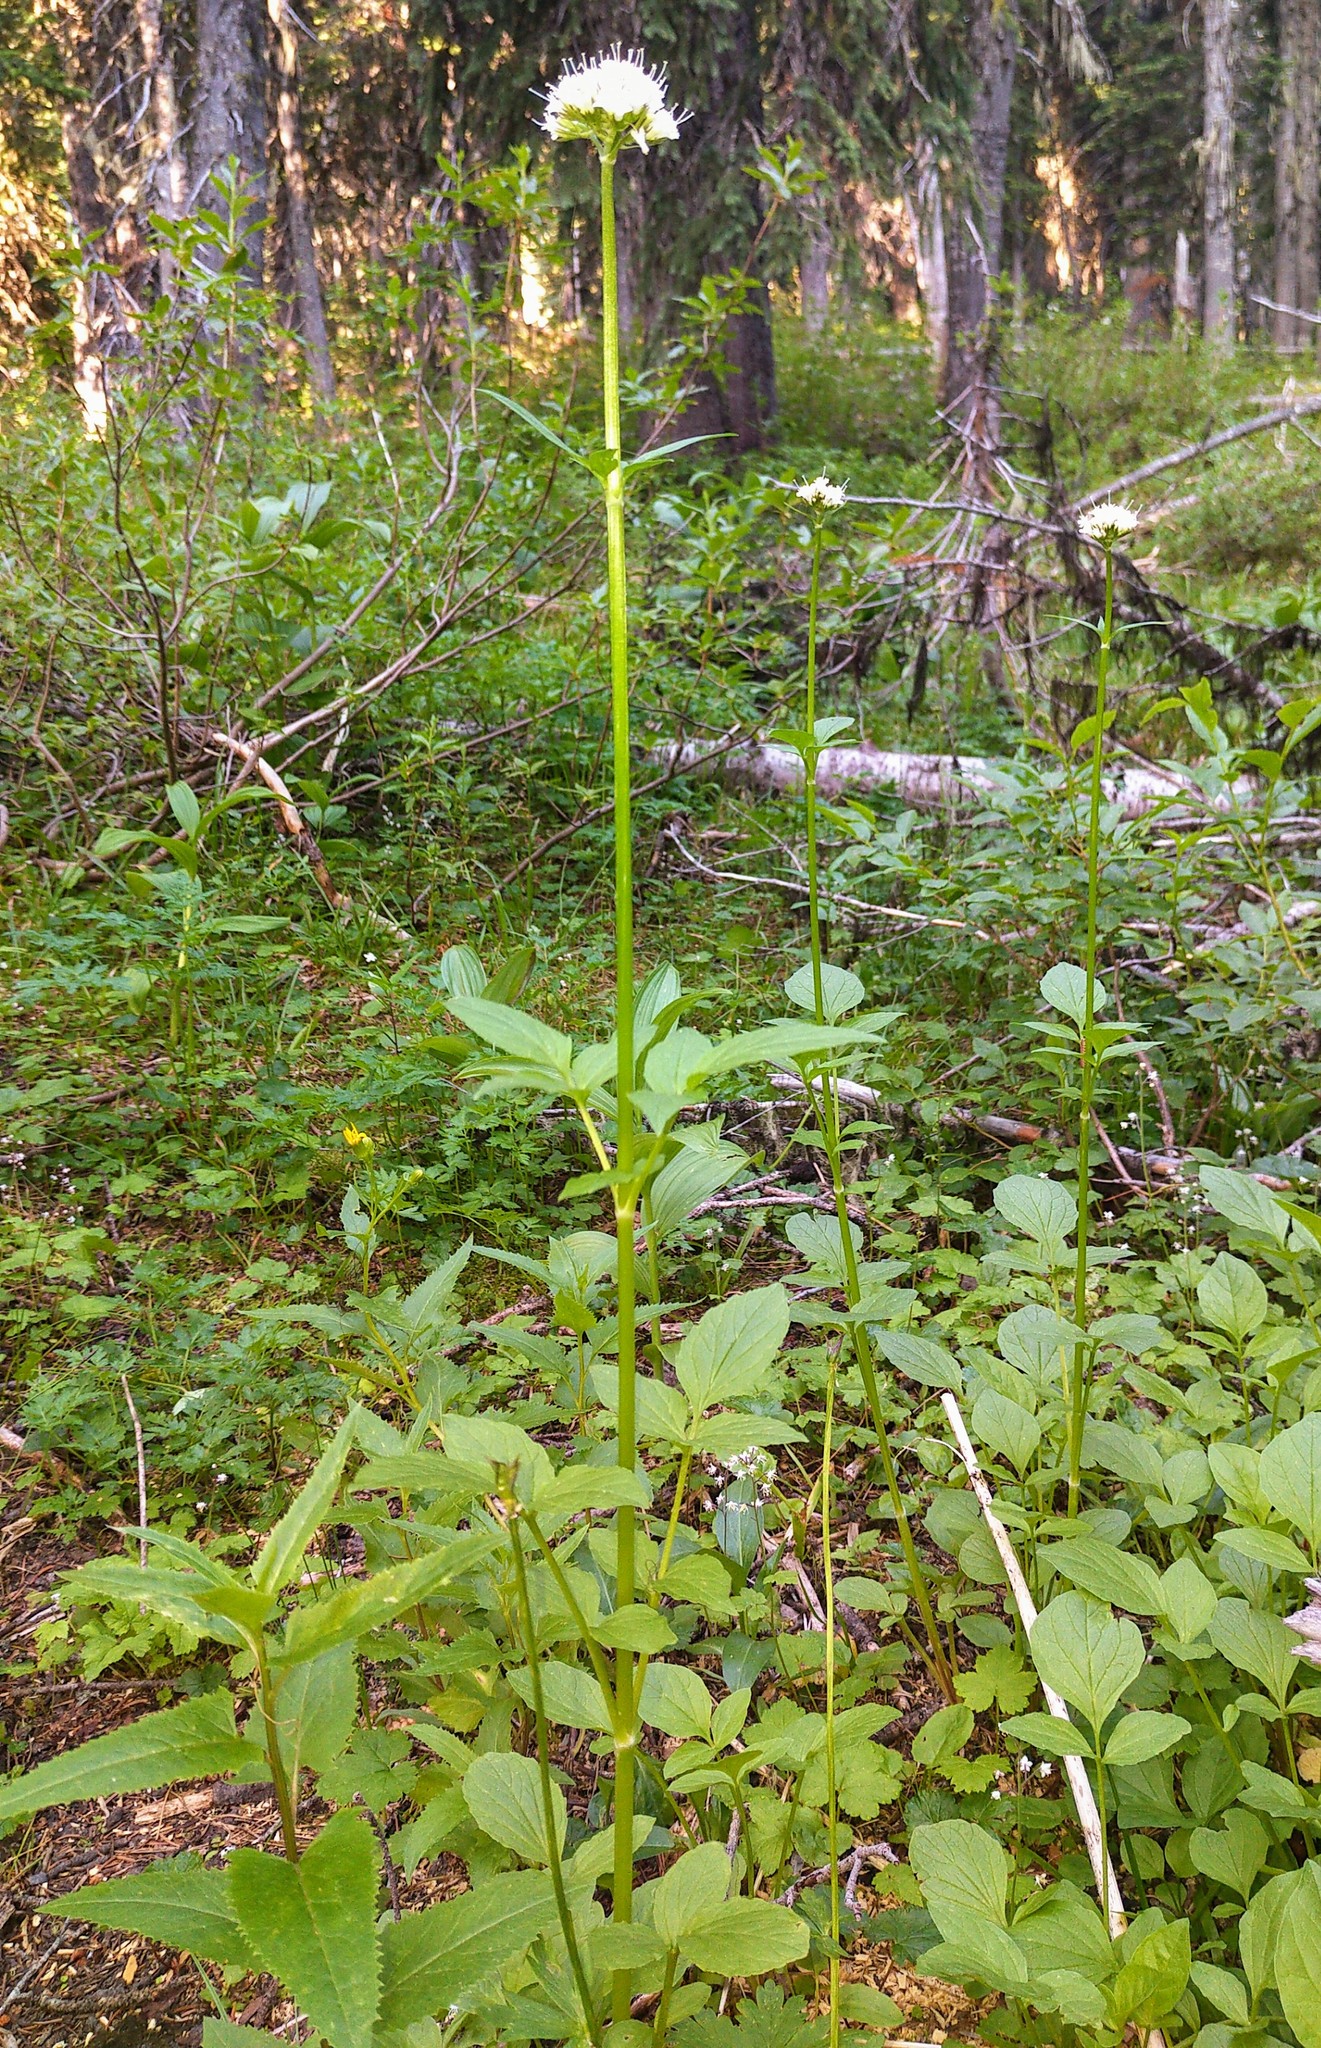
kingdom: Plantae
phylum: Tracheophyta
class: Magnoliopsida
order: Dipsacales
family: Caprifoliaceae
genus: Valeriana
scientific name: Valeriana sitchensis
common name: Pacific valerian
